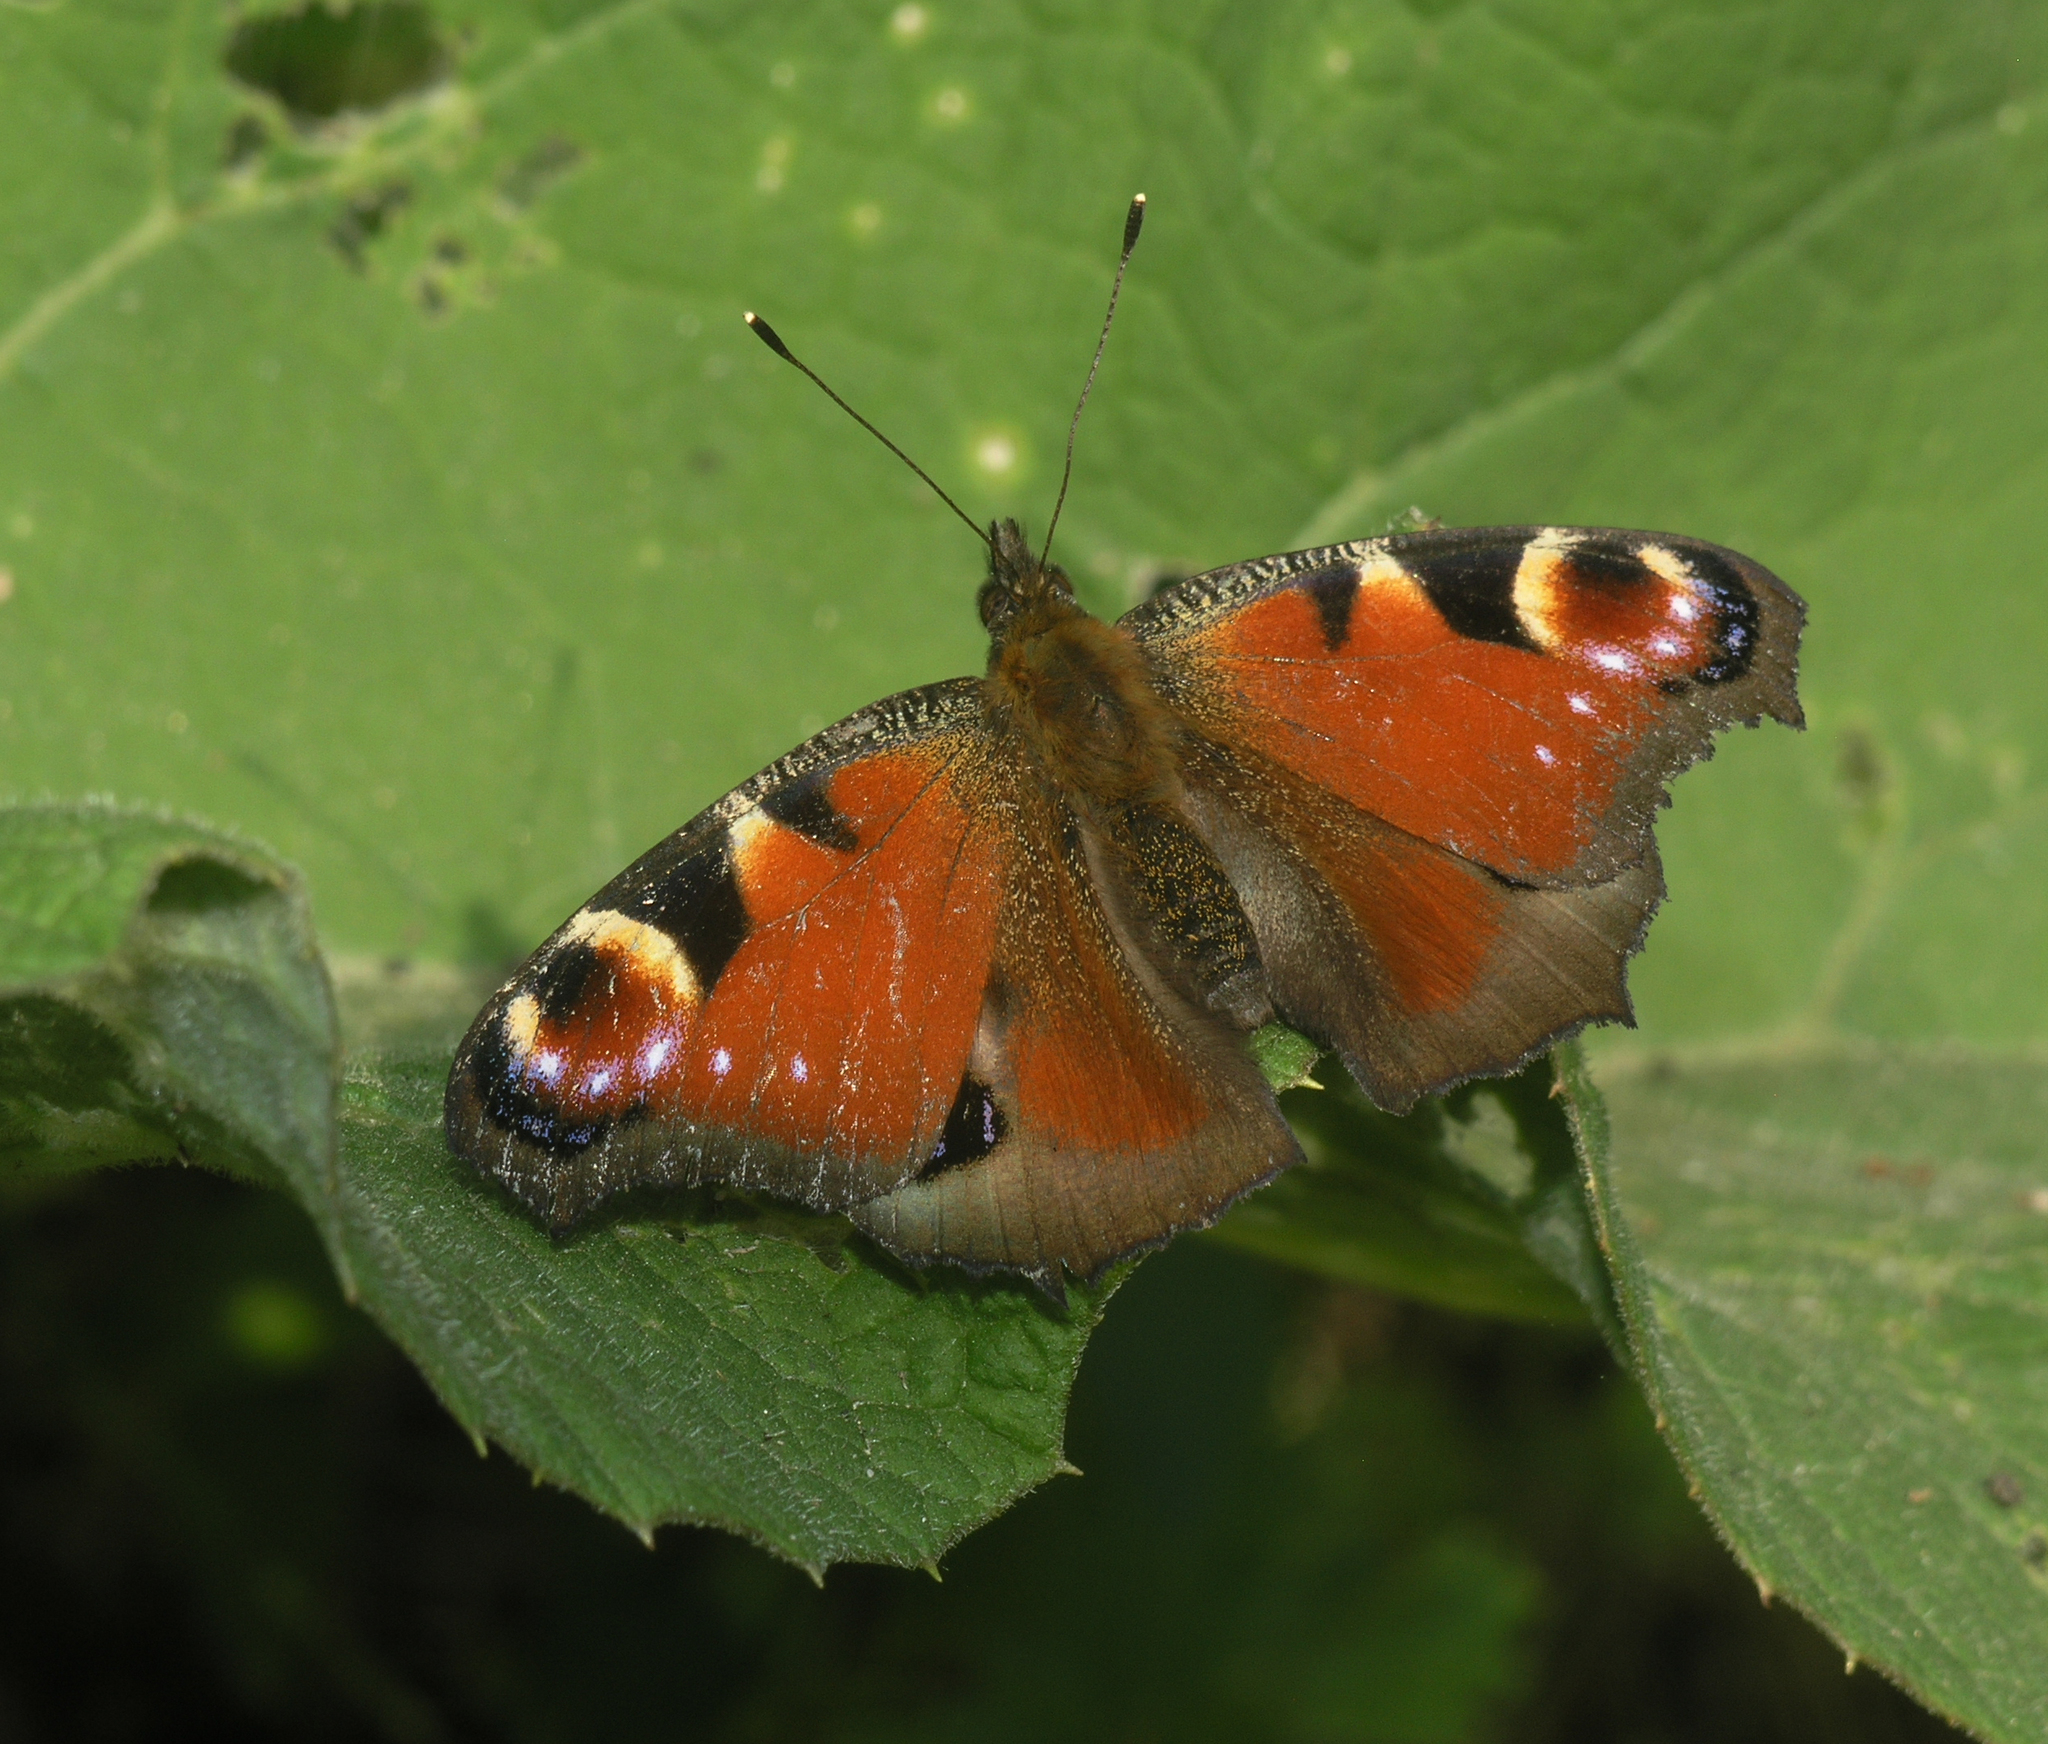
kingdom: Animalia
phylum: Arthropoda
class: Insecta
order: Lepidoptera
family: Nymphalidae
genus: Aglais
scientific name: Aglais io
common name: Peacock
